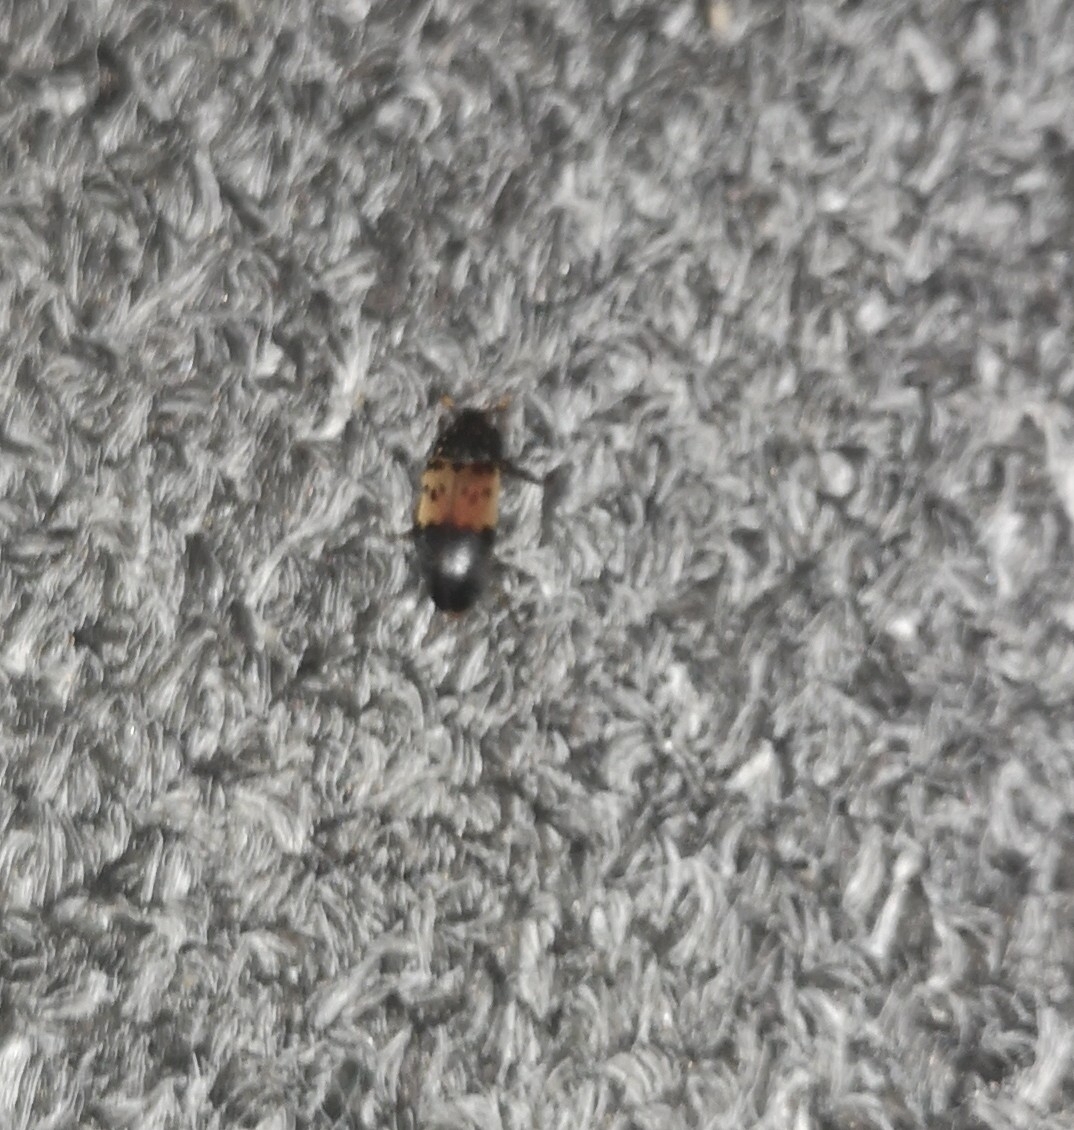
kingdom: Animalia
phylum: Arthropoda
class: Insecta
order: Coleoptera
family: Dermestidae
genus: Dermestes
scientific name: Dermestes lardarius
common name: Larder beetle
